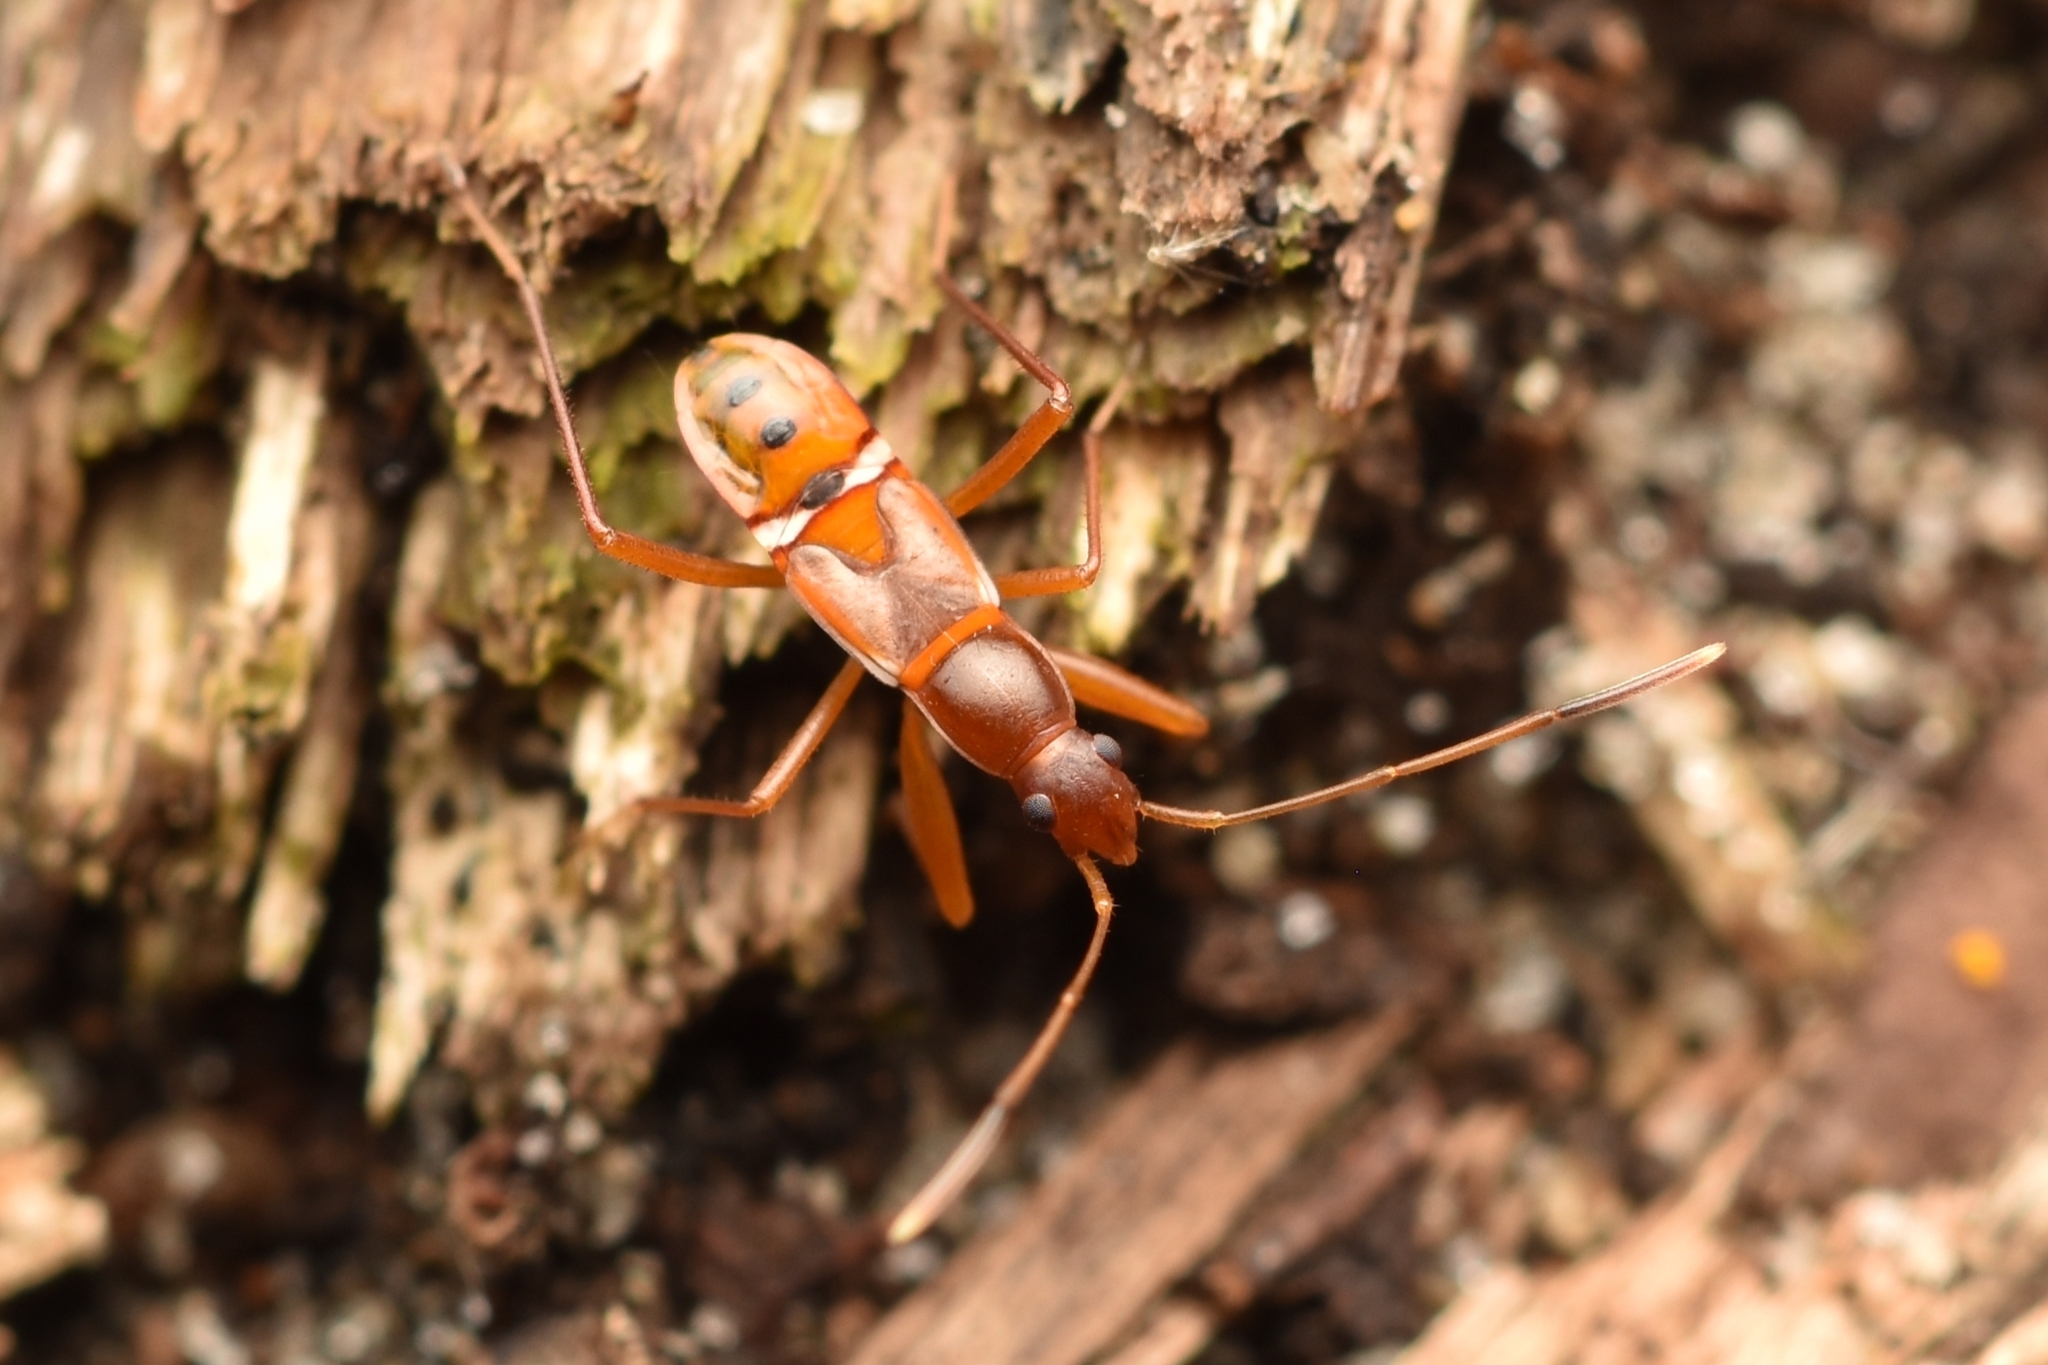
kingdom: Animalia
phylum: Arthropoda
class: Insecta
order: Hemiptera
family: Rhyparochromidae
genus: Cnemodus
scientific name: Cnemodus mavortius
